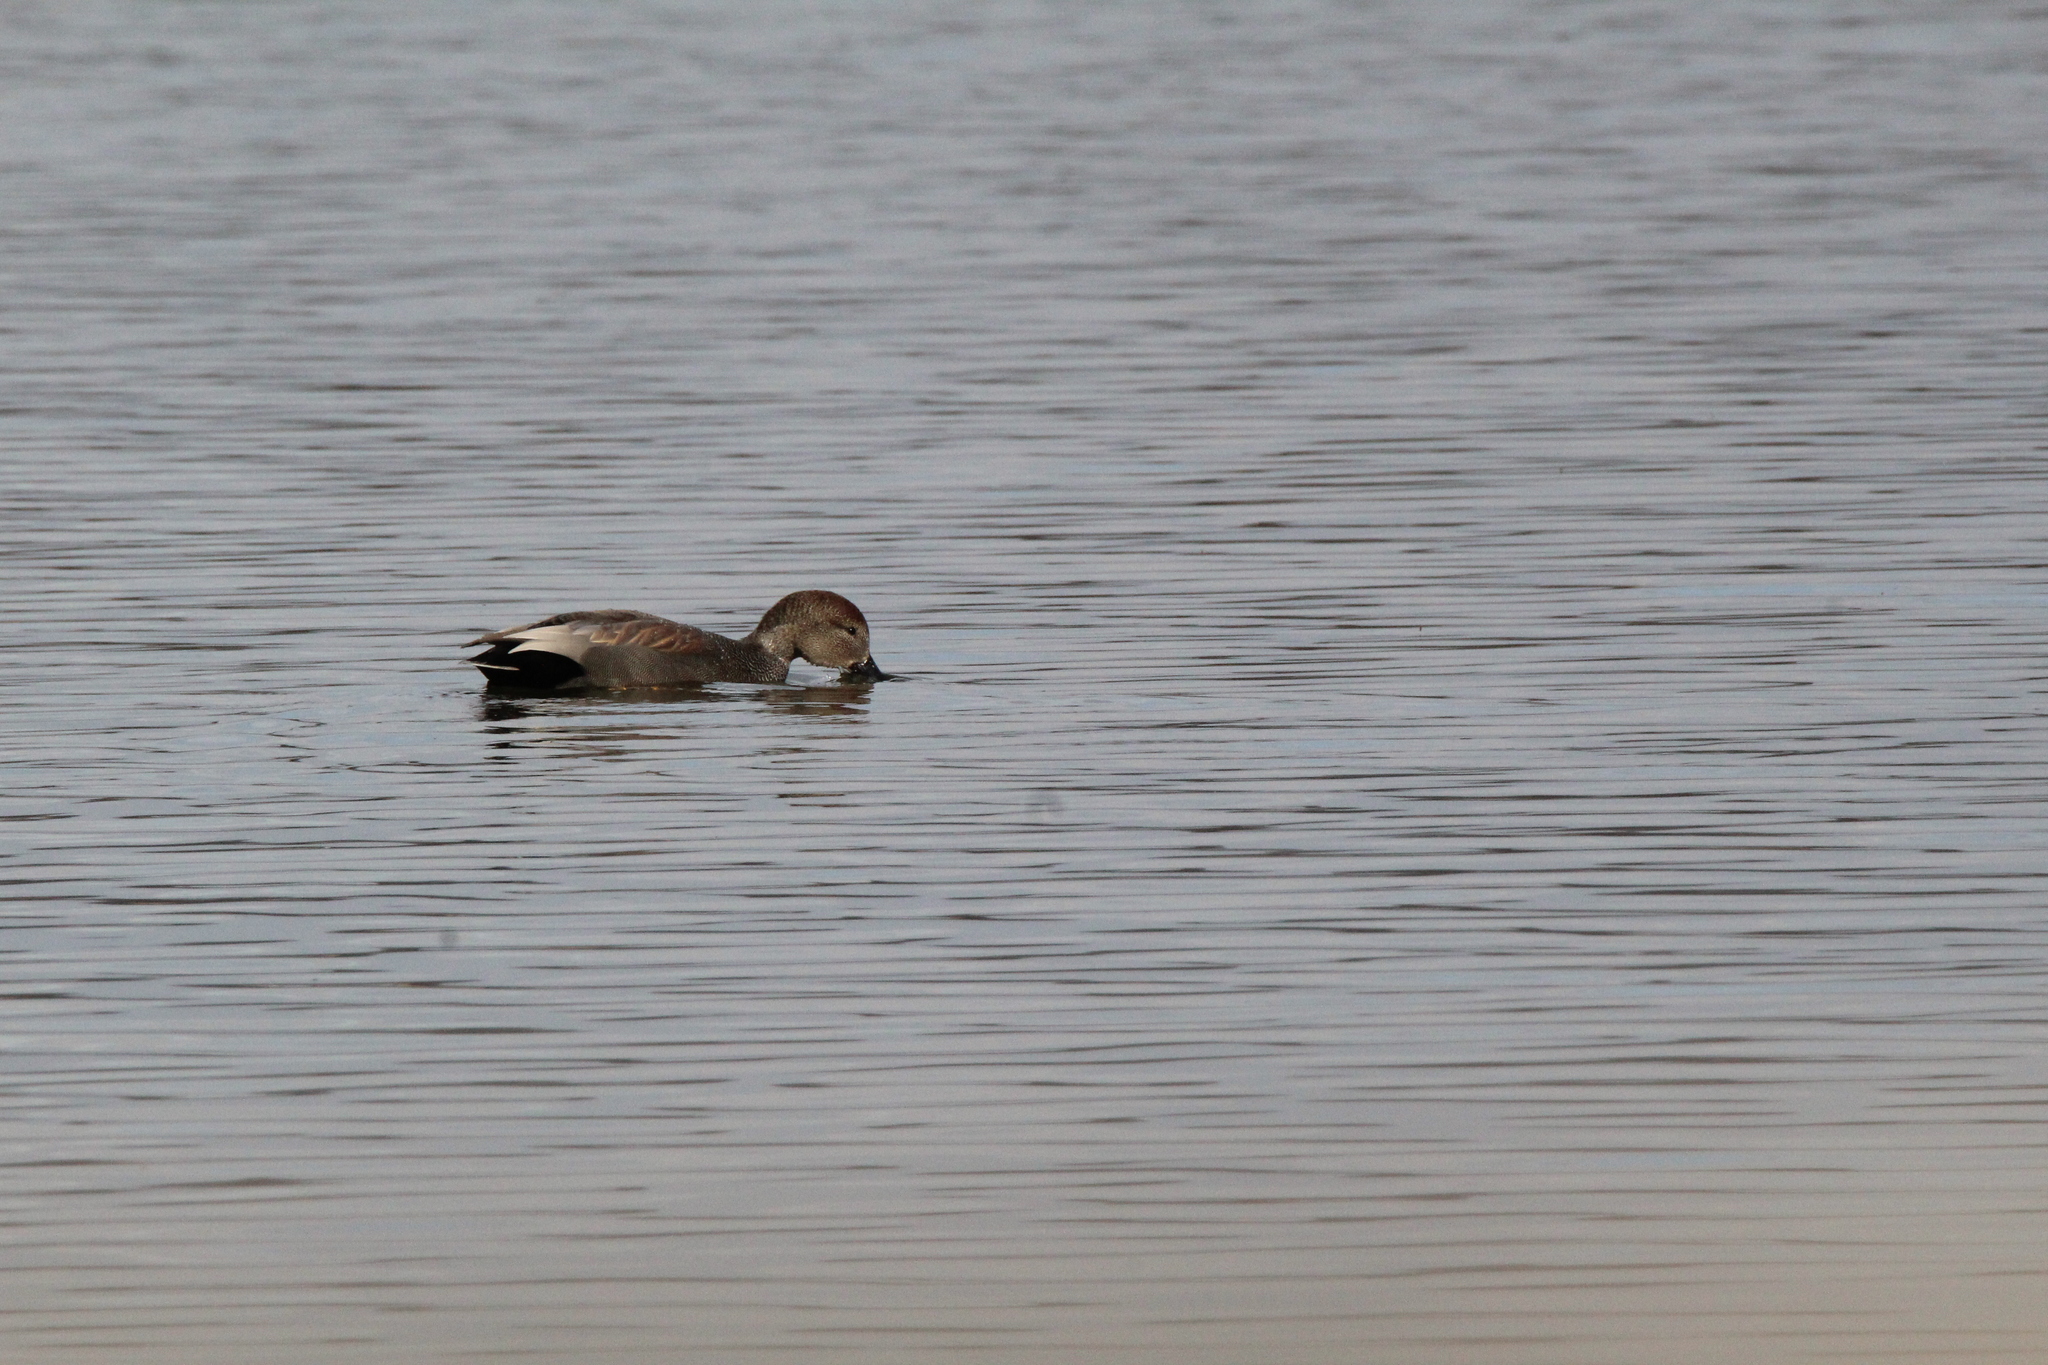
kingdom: Animalia
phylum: Chordata
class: Aves
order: Anseriformes
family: Anatidae
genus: Mareca
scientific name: Mareca strepera
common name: Gadwall
